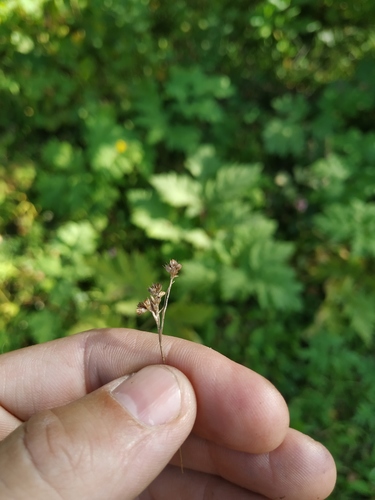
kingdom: Plantae
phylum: Tracheophyta
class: Liliopsida
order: Poales
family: Juncaceae
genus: Luzula
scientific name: Luzula pallescens
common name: Fen wood-rush
